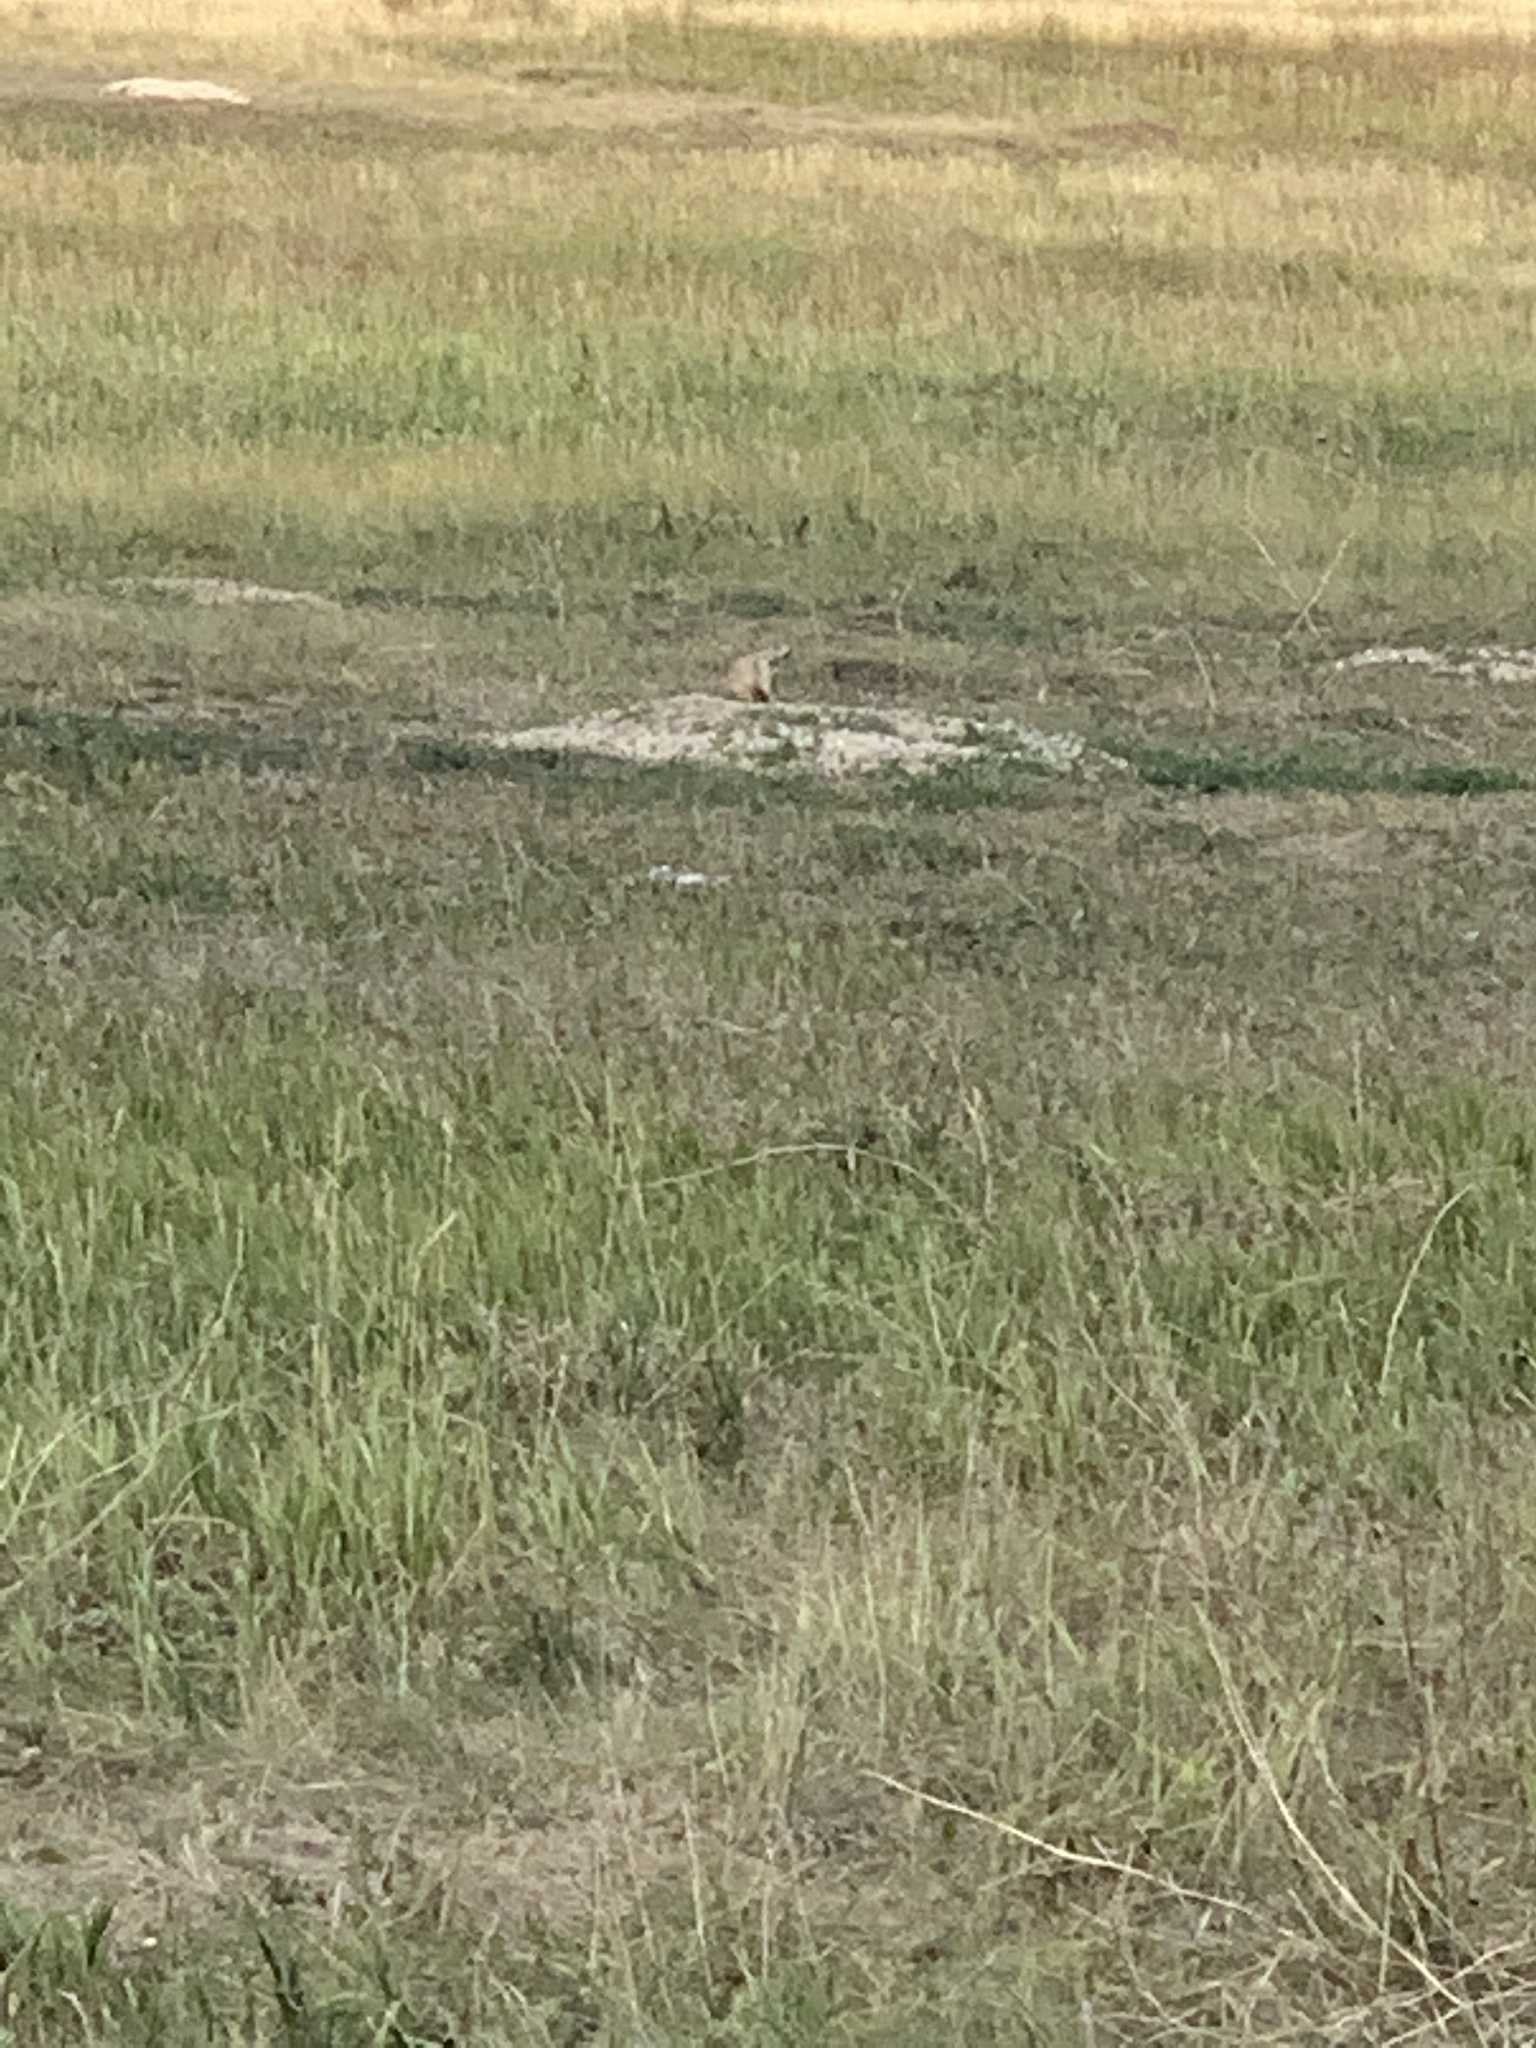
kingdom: Animalia
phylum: Chordata
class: Mammalia
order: Rodentia
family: Sciuridae
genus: Cynomys
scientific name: Cynomys ludovicianus
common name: Black-tailed prairie dog
